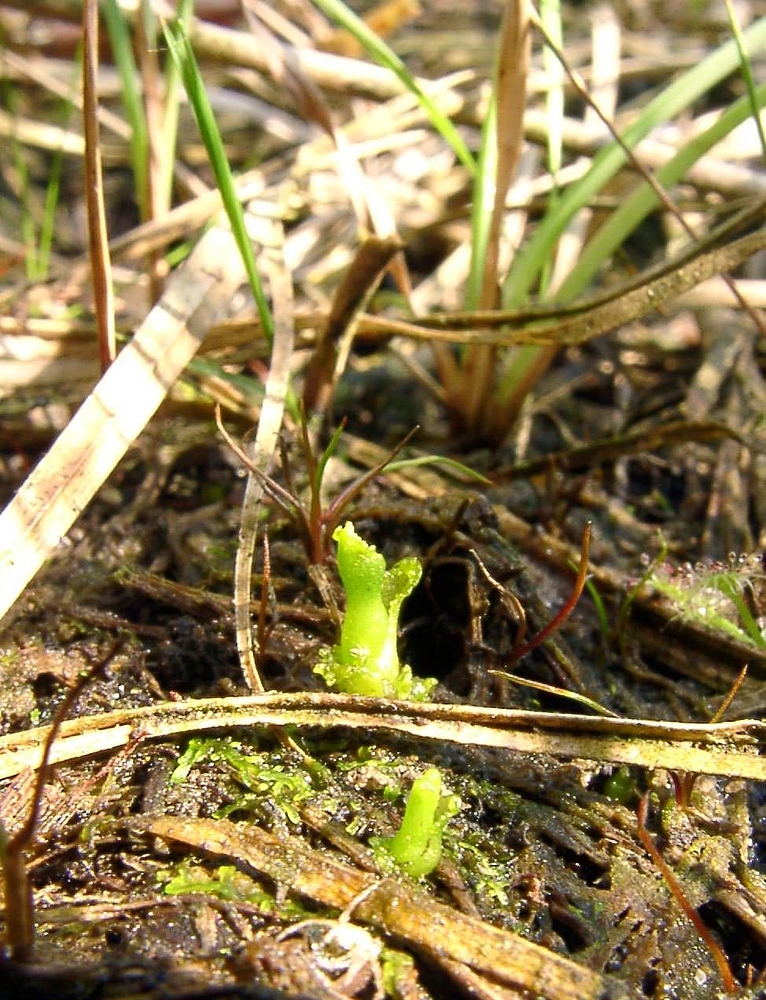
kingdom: Plantae
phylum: Tracheophyta
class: Liliopsida
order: Asparagales
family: Orchidaceae
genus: Hammarbya
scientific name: Hammarbya paludosa
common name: Bog orchid
